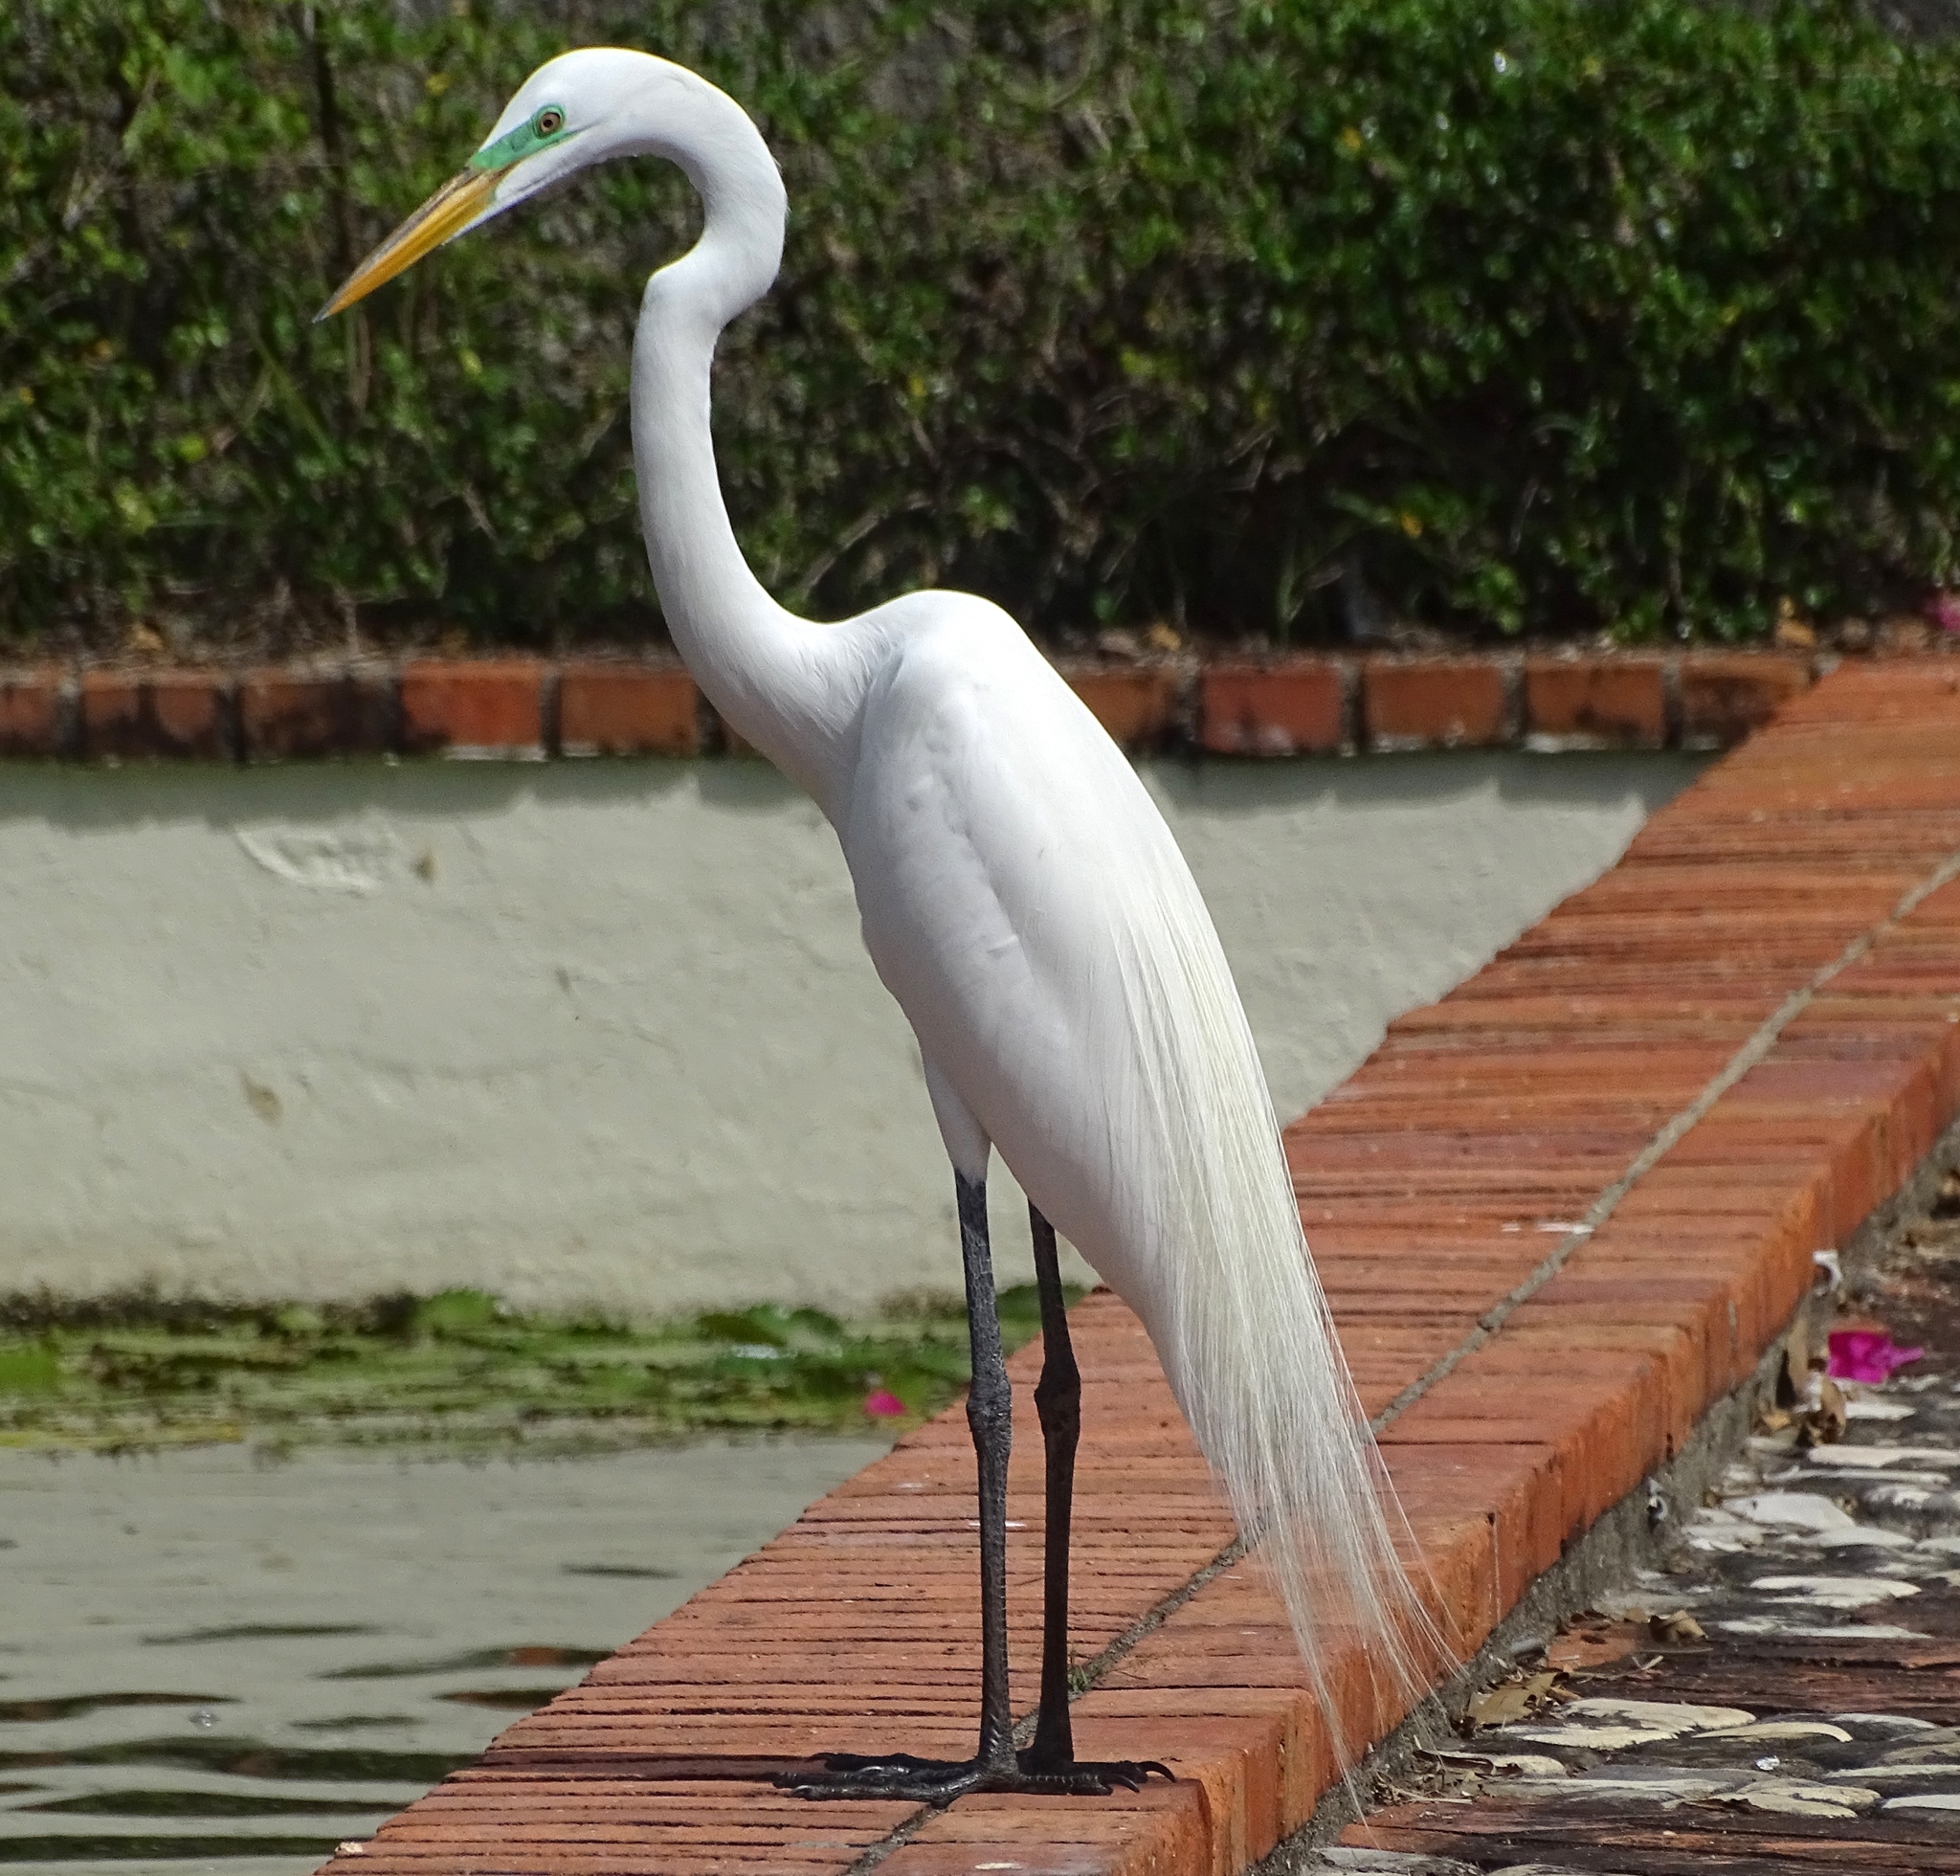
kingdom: Animalia
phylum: Chordata
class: Aves
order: Pelecaniformes
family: Ardeidae
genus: Ardea
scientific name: Ardea alba
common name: Great egret
